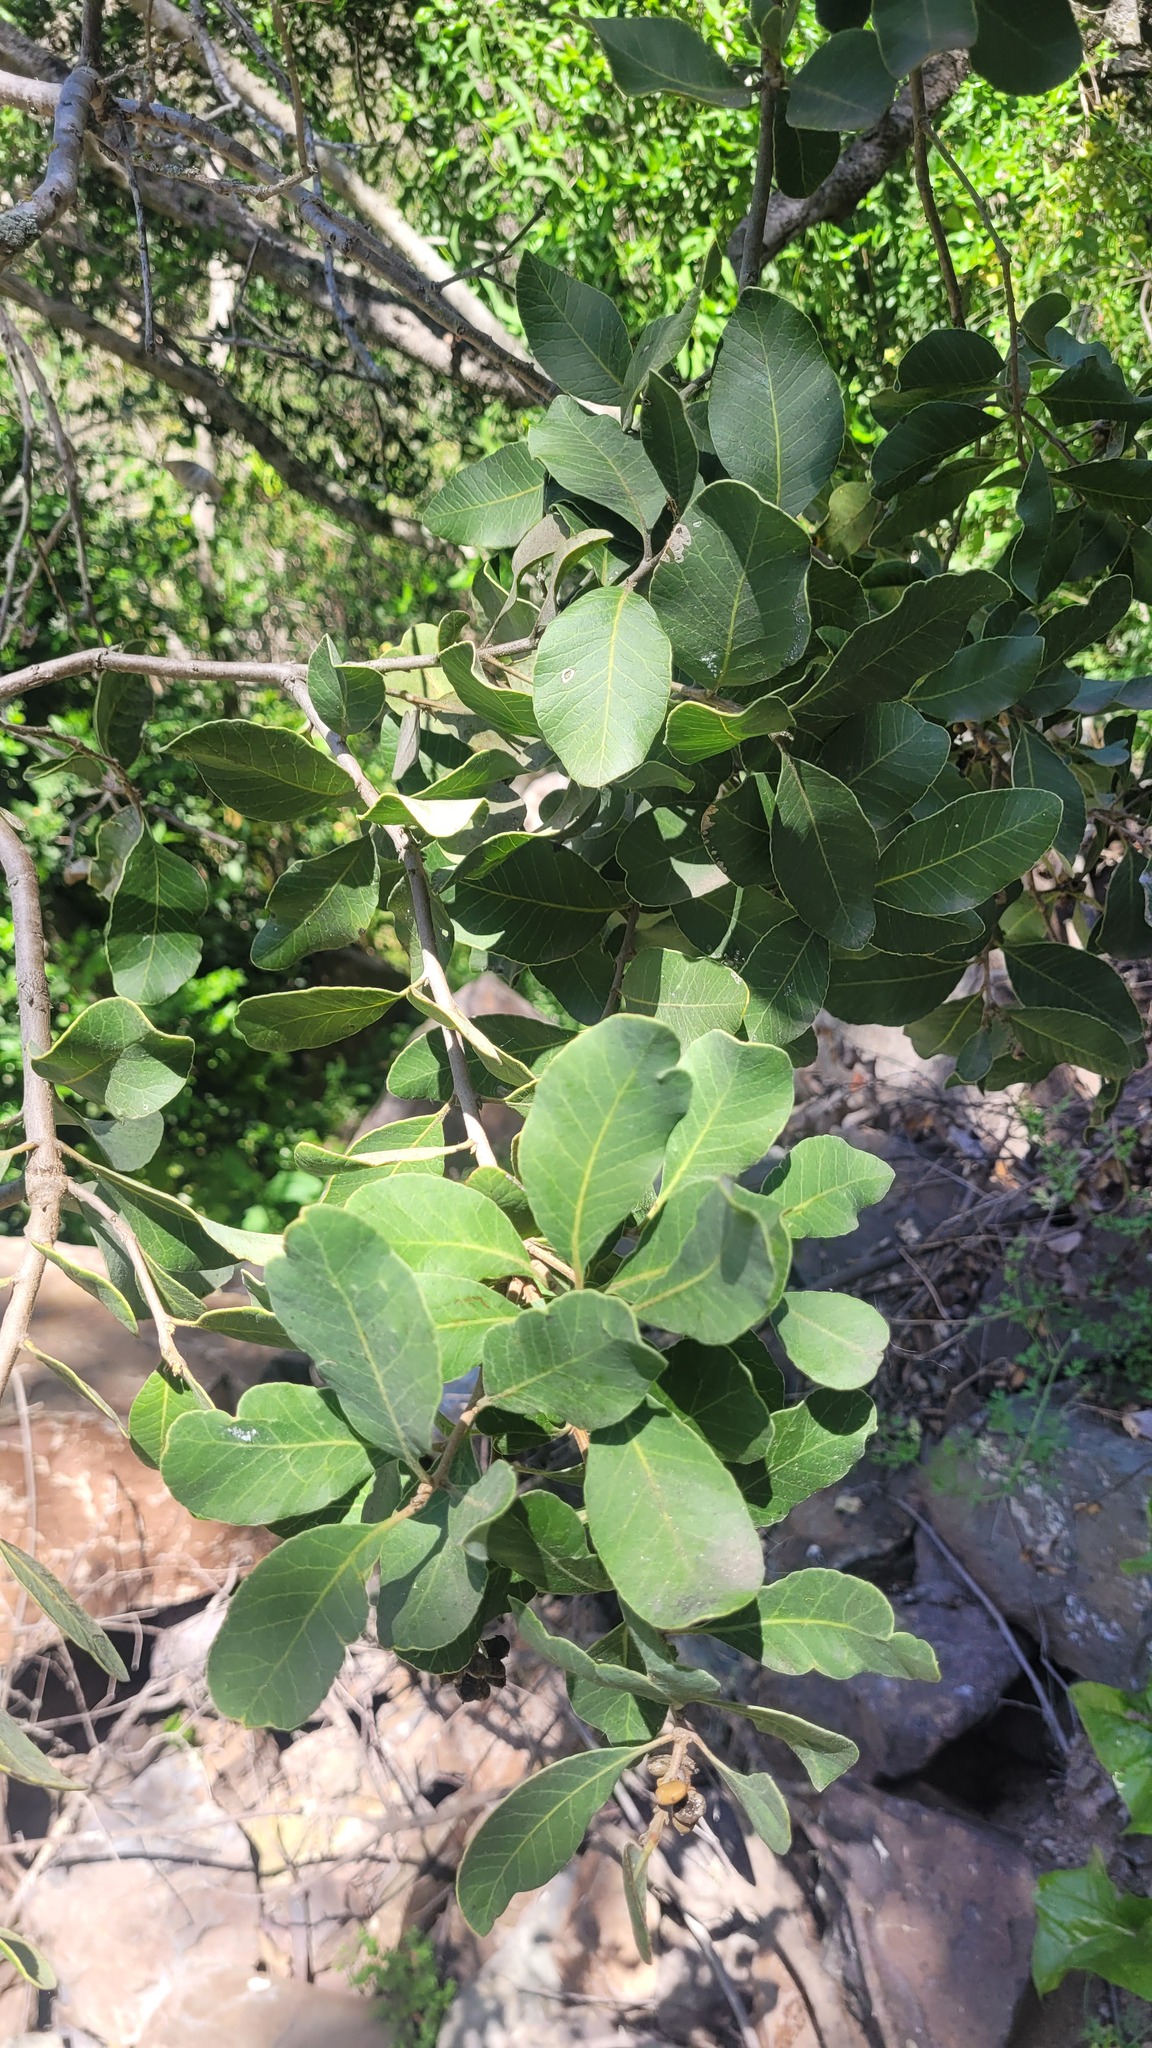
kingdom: Plantae
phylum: Tracheophyta
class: Magnoliopsida
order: Sapindales
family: Anacardiaceae
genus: Lithraea
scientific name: Lithraea caustica
